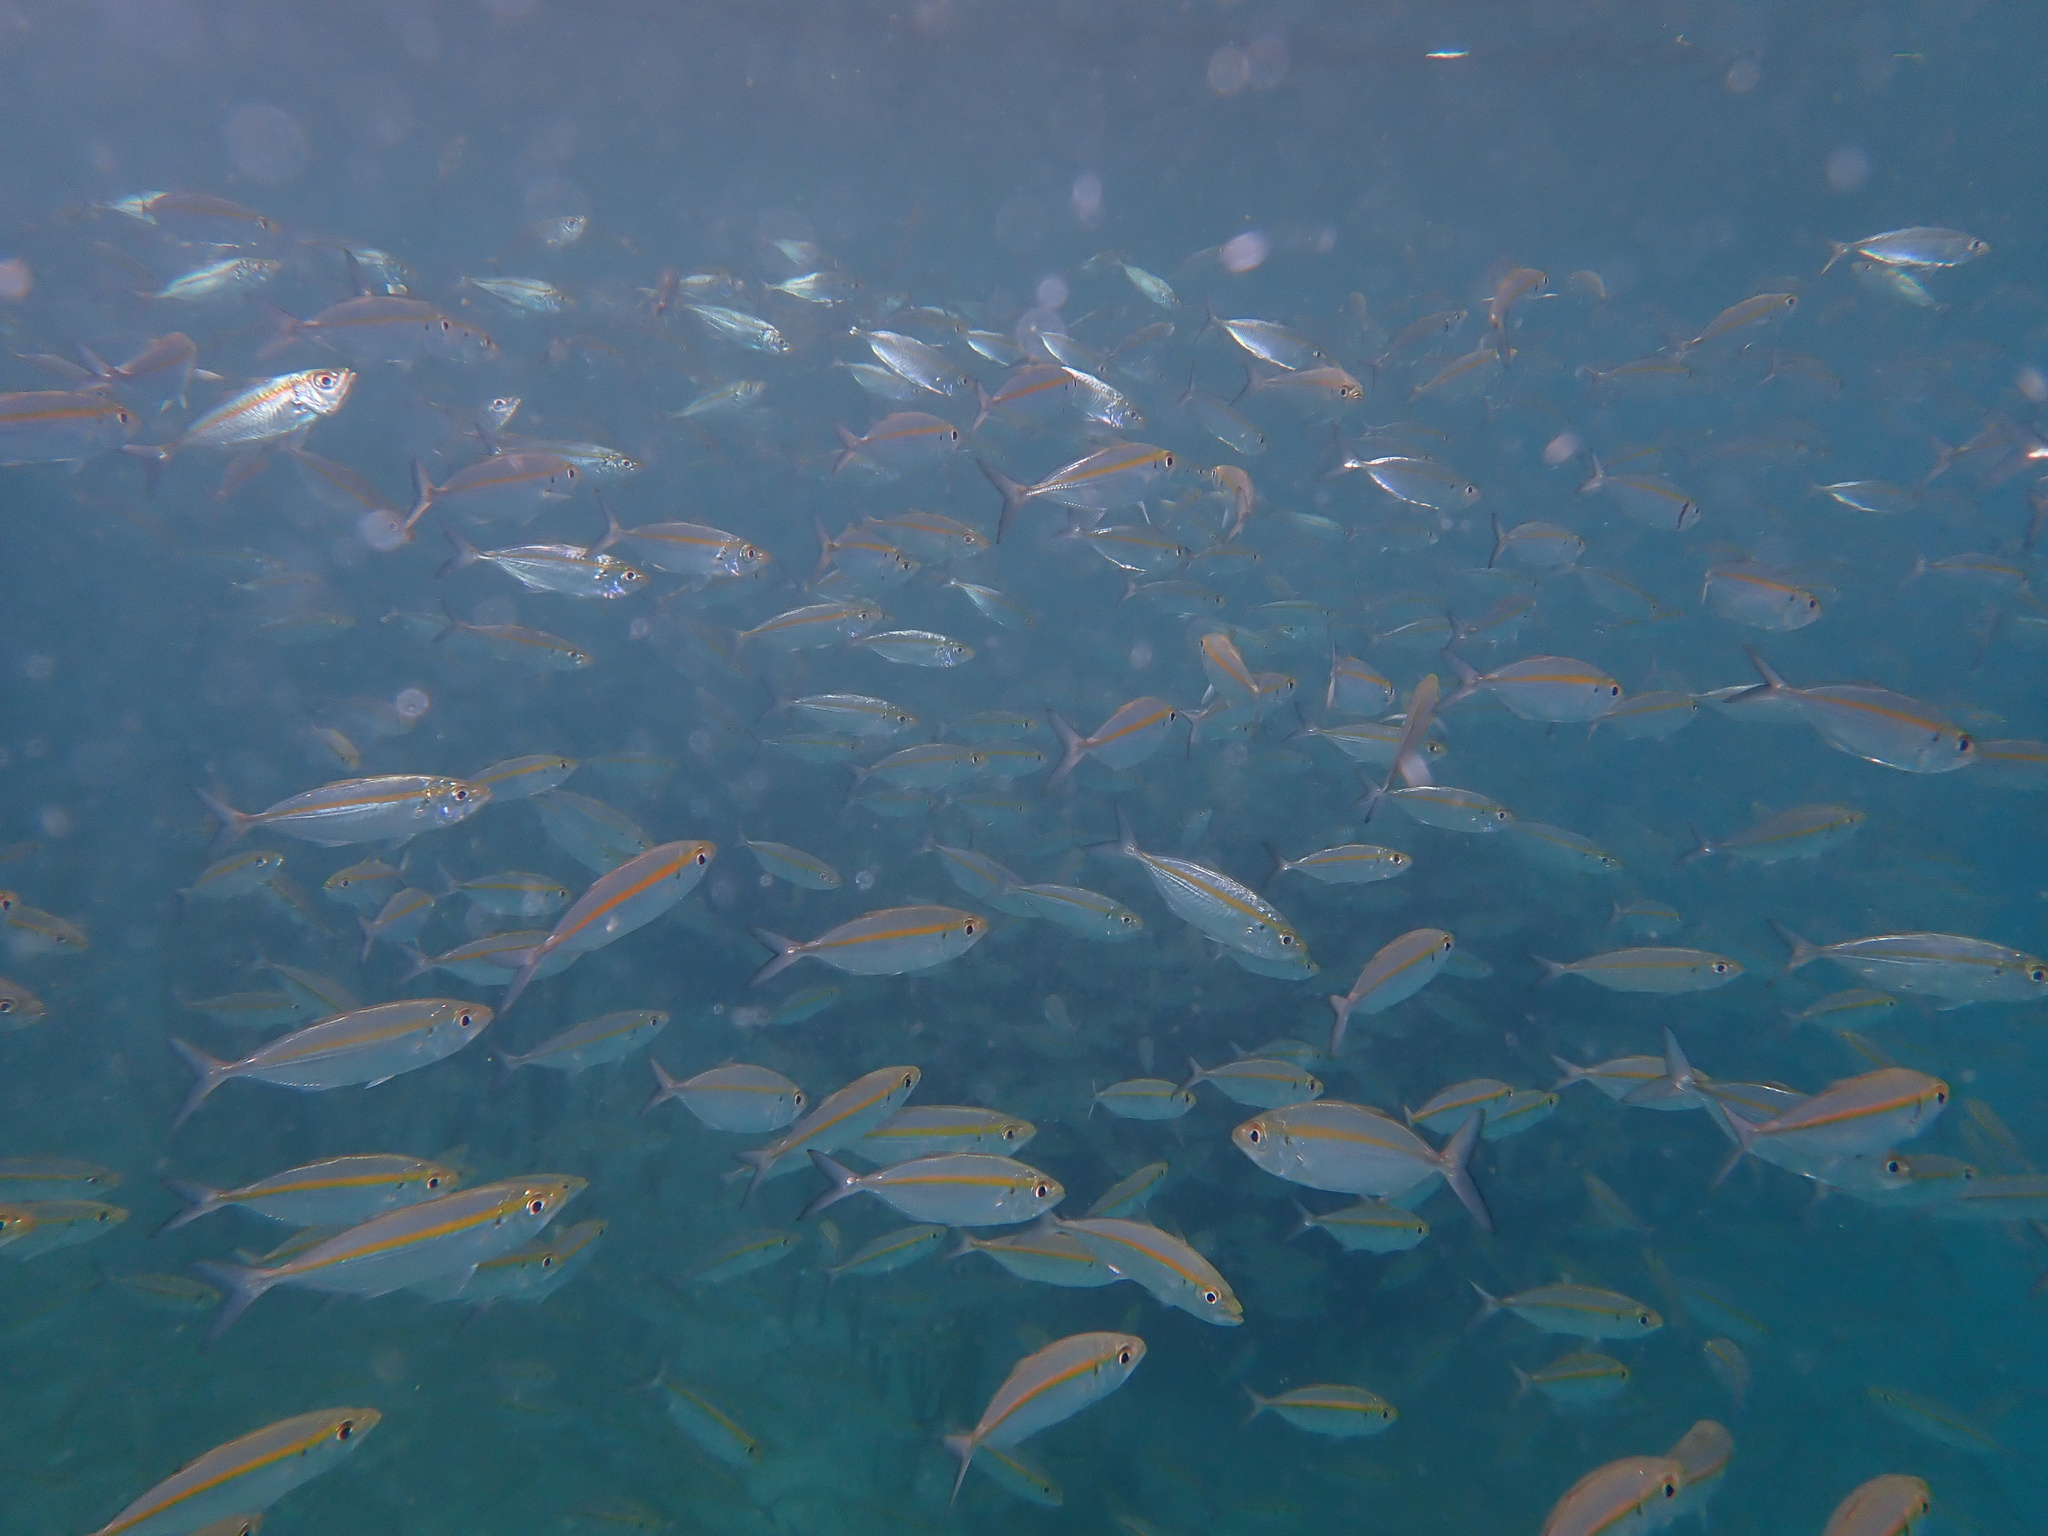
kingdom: Animalia
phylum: Chordata
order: Perciformes
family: Carangidae
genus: Selar
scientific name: Selar boops
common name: Oxeye scad
